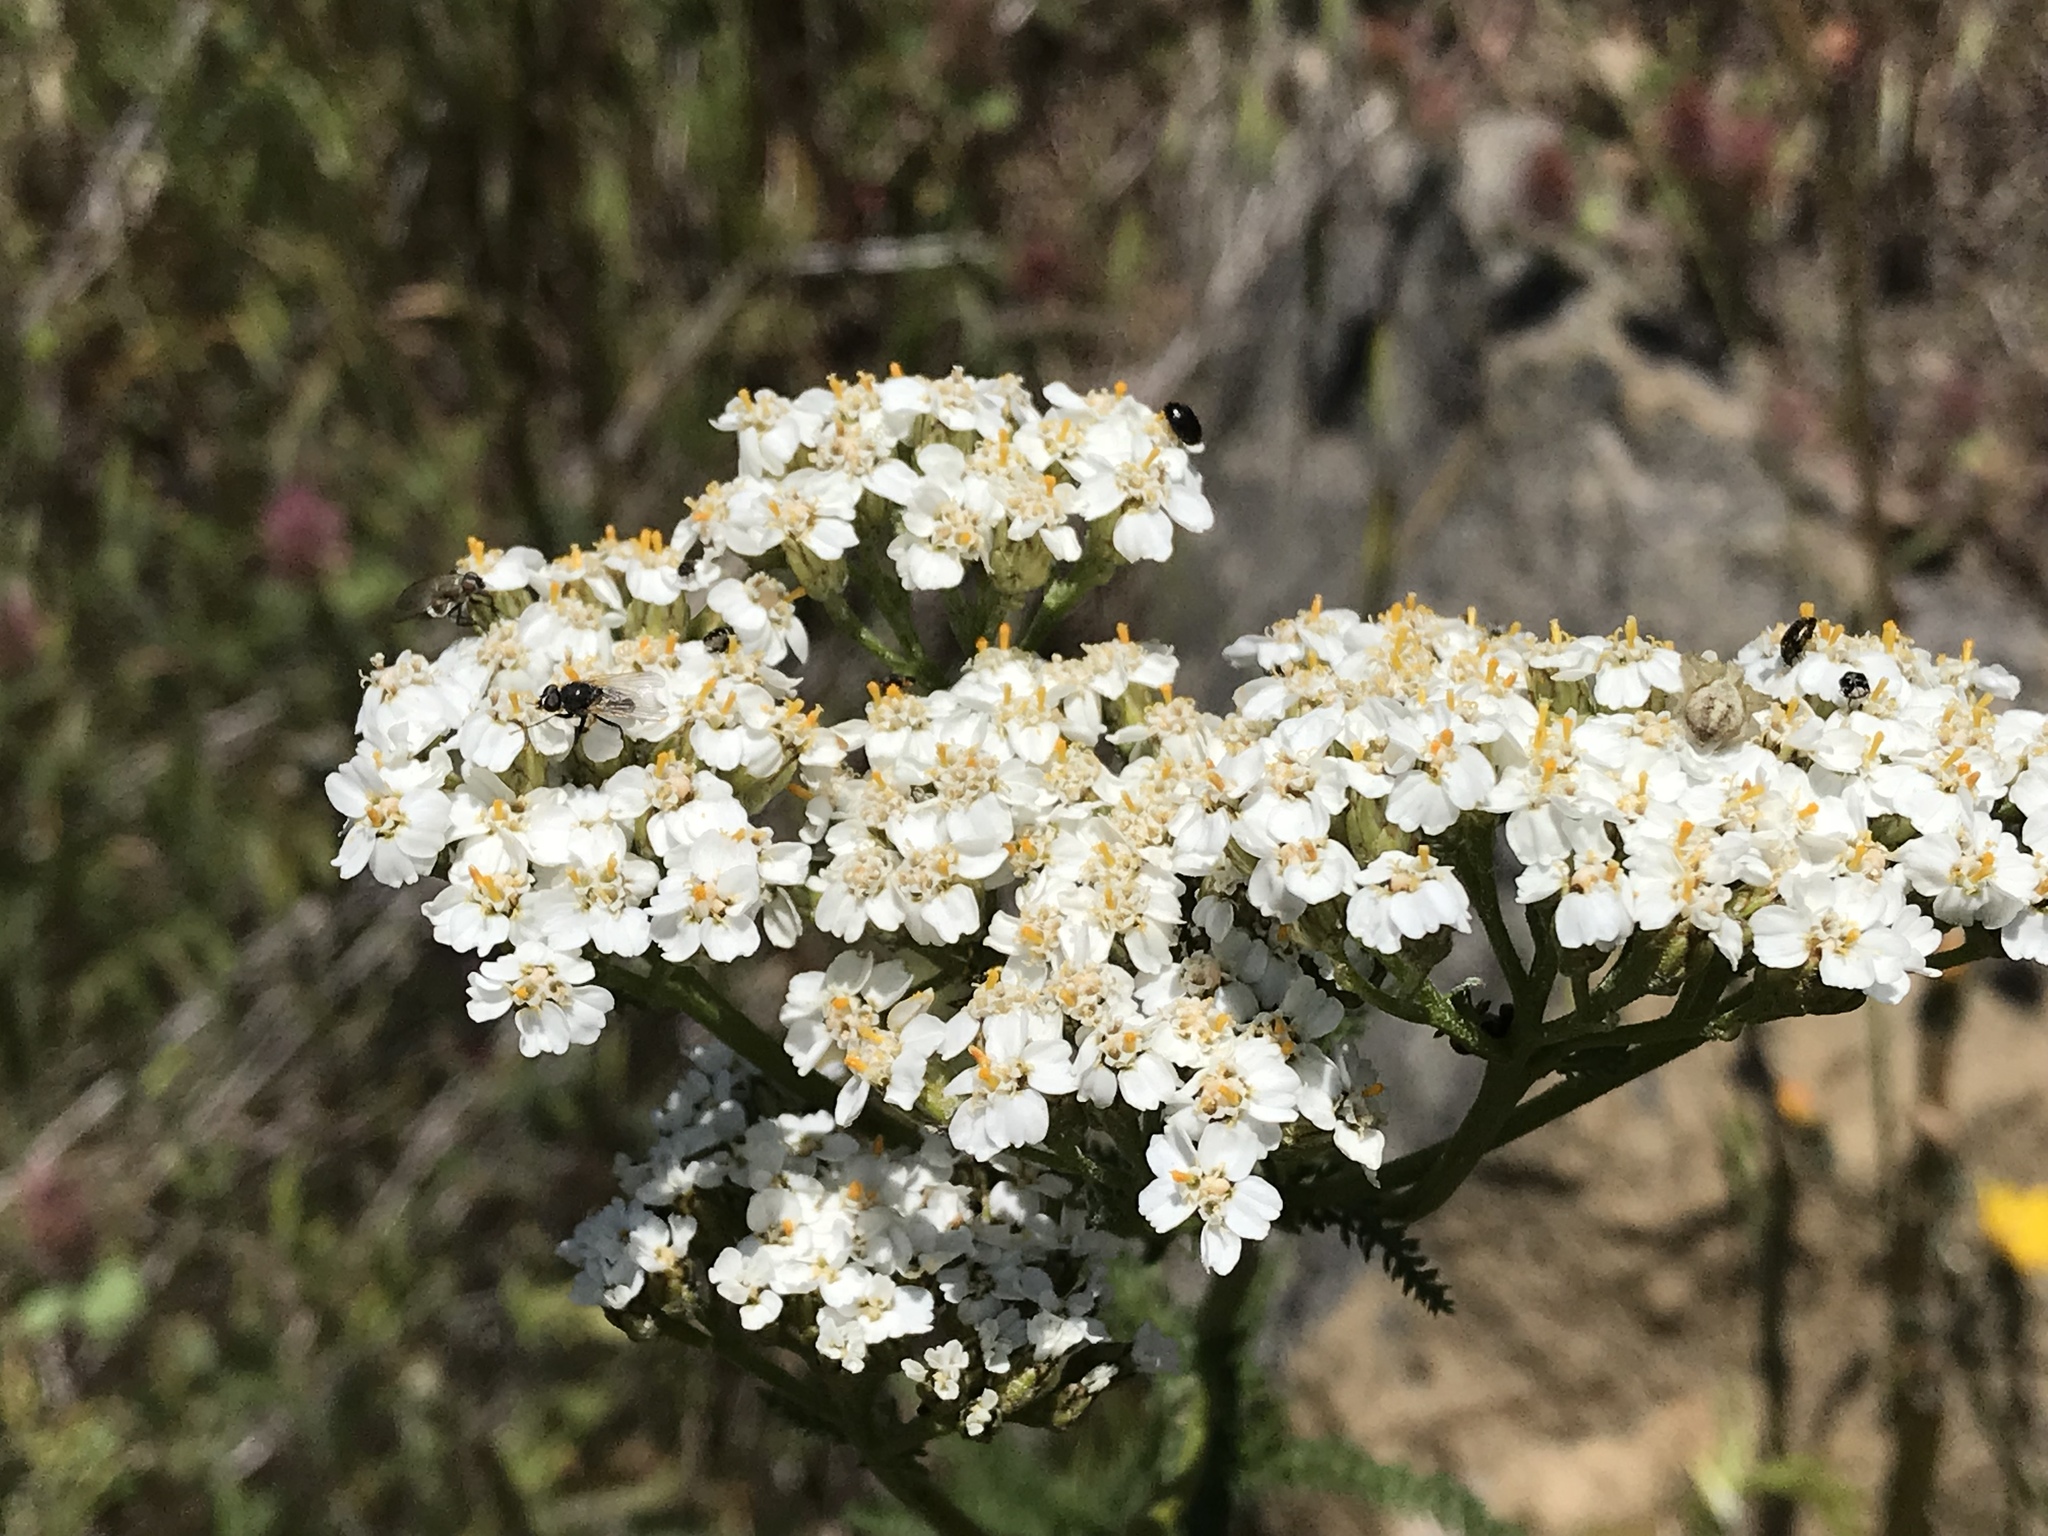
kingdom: Plantae
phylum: Tracheophyta
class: Magnoliopsida
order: Asterales
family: Asteraceae
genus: Achillea
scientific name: Achillea millefolium
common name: Yarrow
